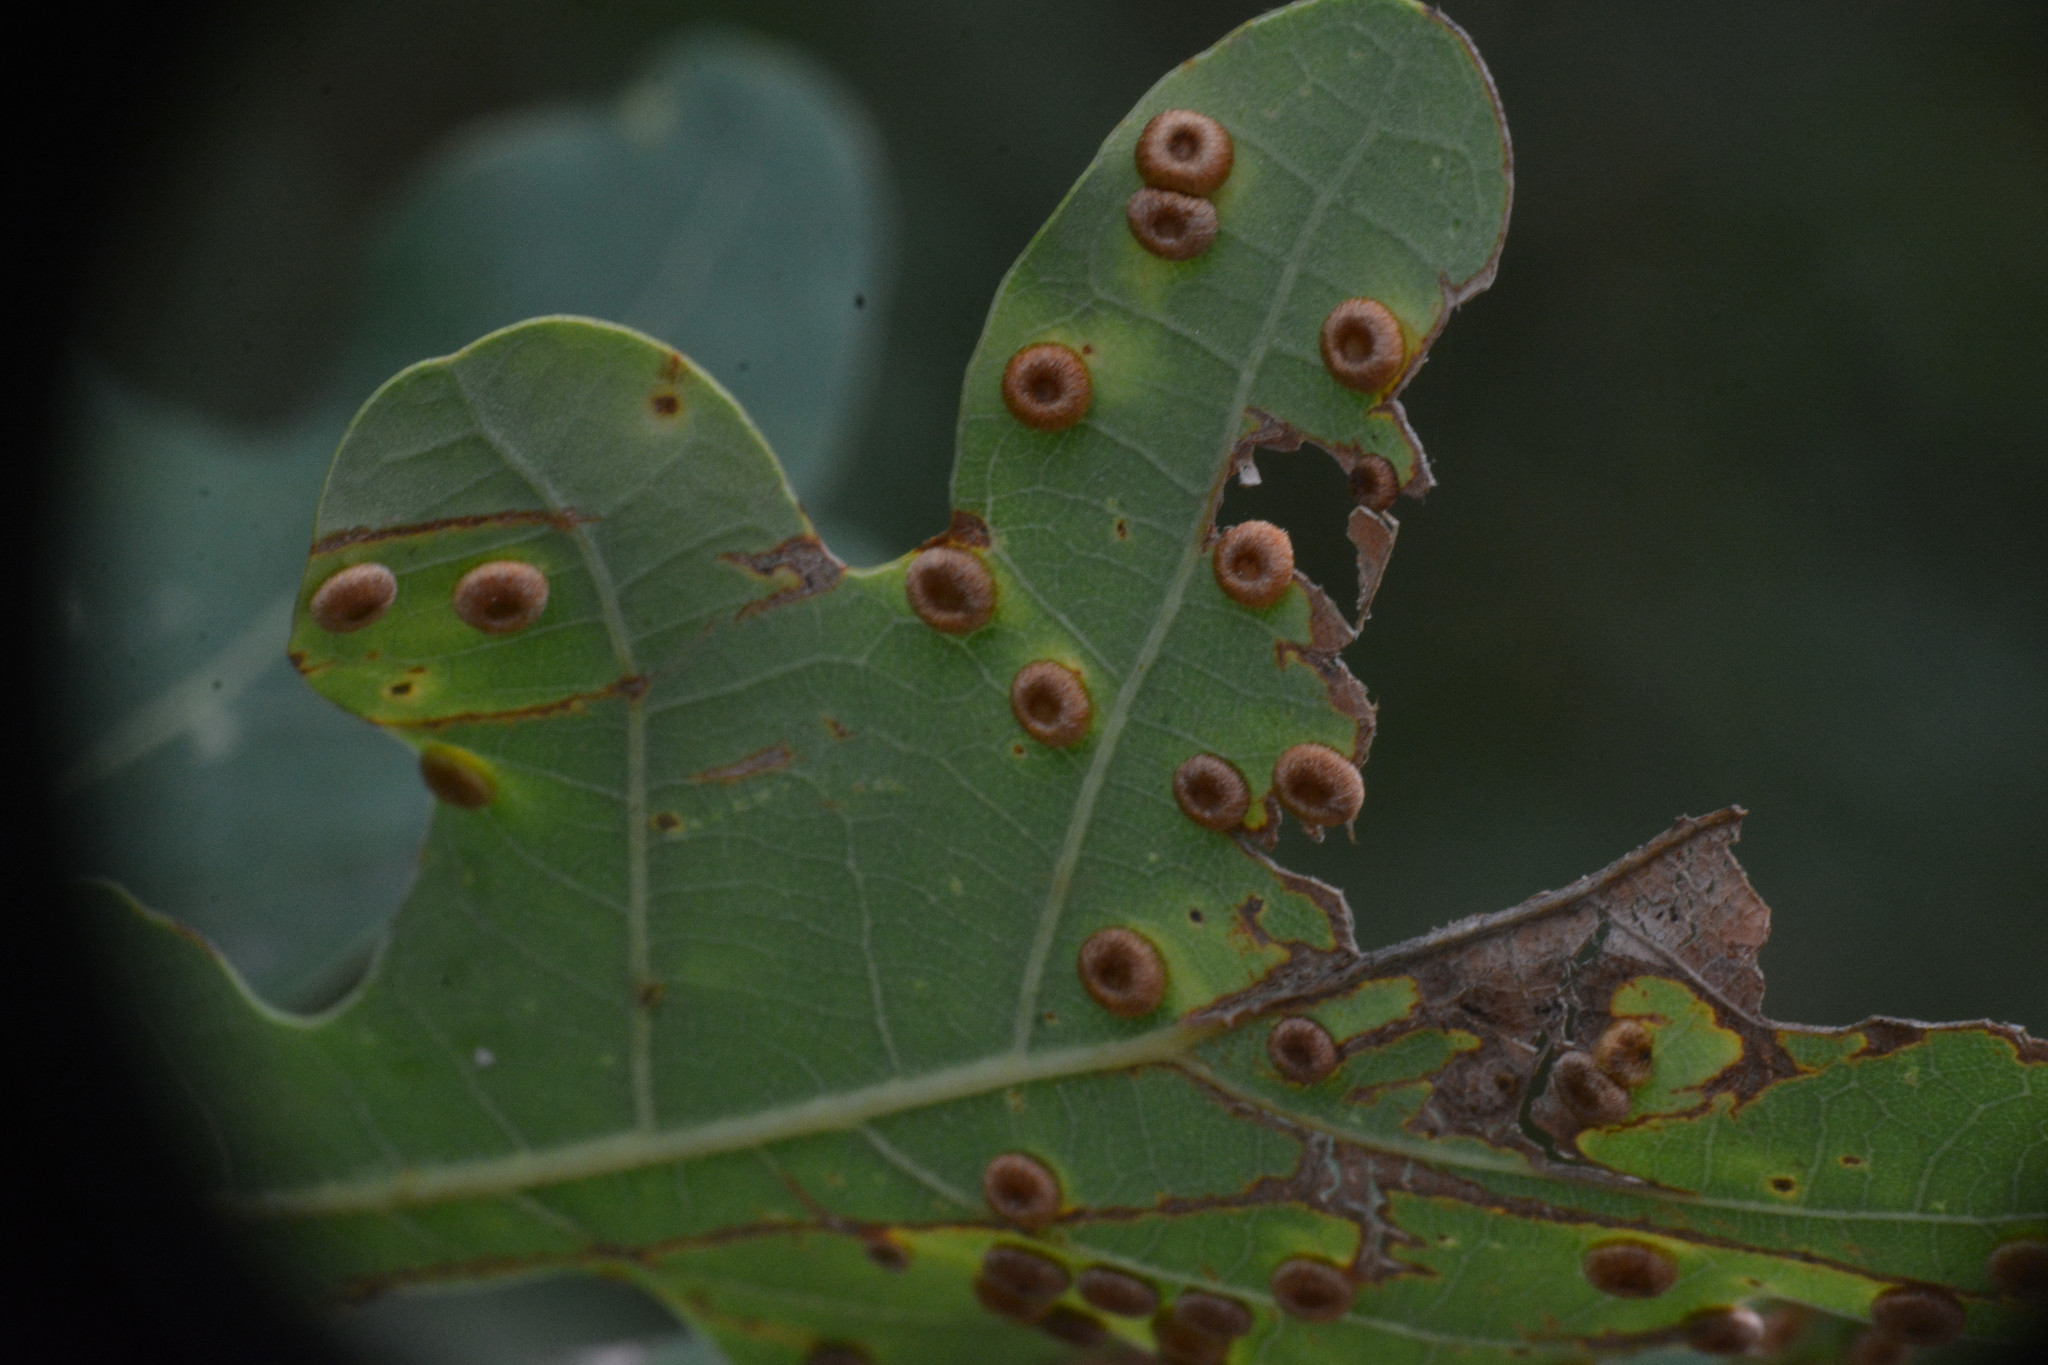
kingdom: Animalia
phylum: Arthropoda
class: Insecta
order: Hymenoptera
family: Cynipidae
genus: Neuroterus
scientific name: Neuroterus numismalis
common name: Silk-button spangle gall
